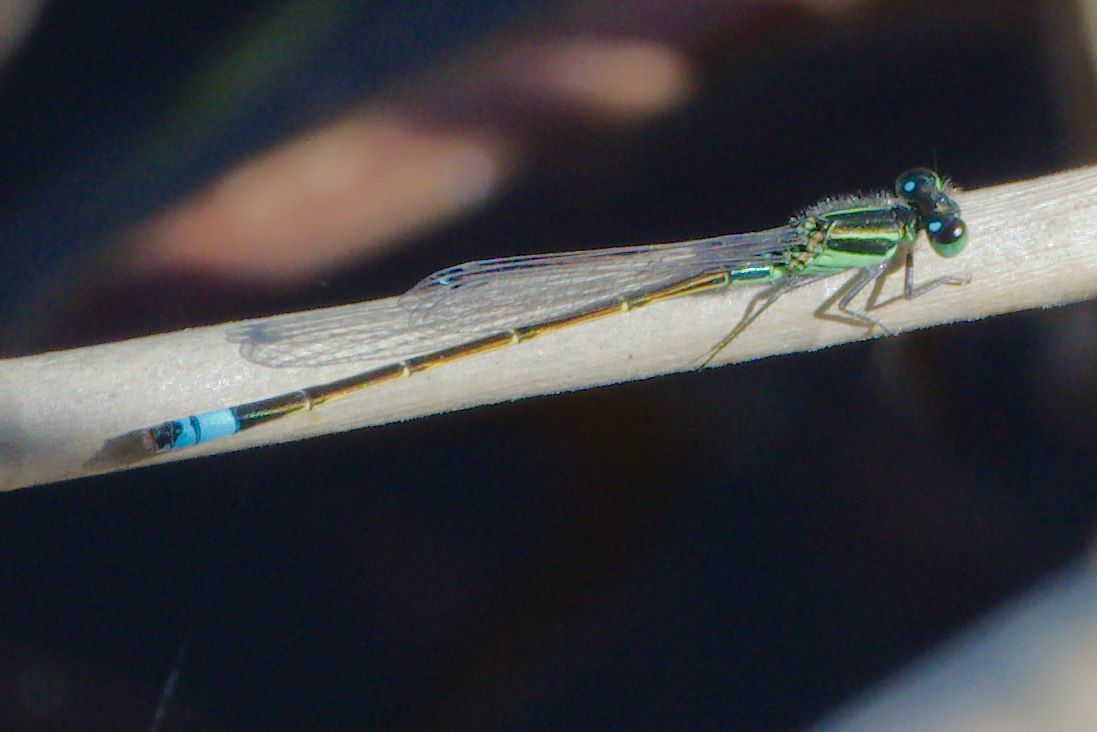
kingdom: Animalia
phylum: Arthropoda
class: Insecta
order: Odonata
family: Coenagrionidae
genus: Ischnura
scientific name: Ischnura ramburii
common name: Rambur's forktail
